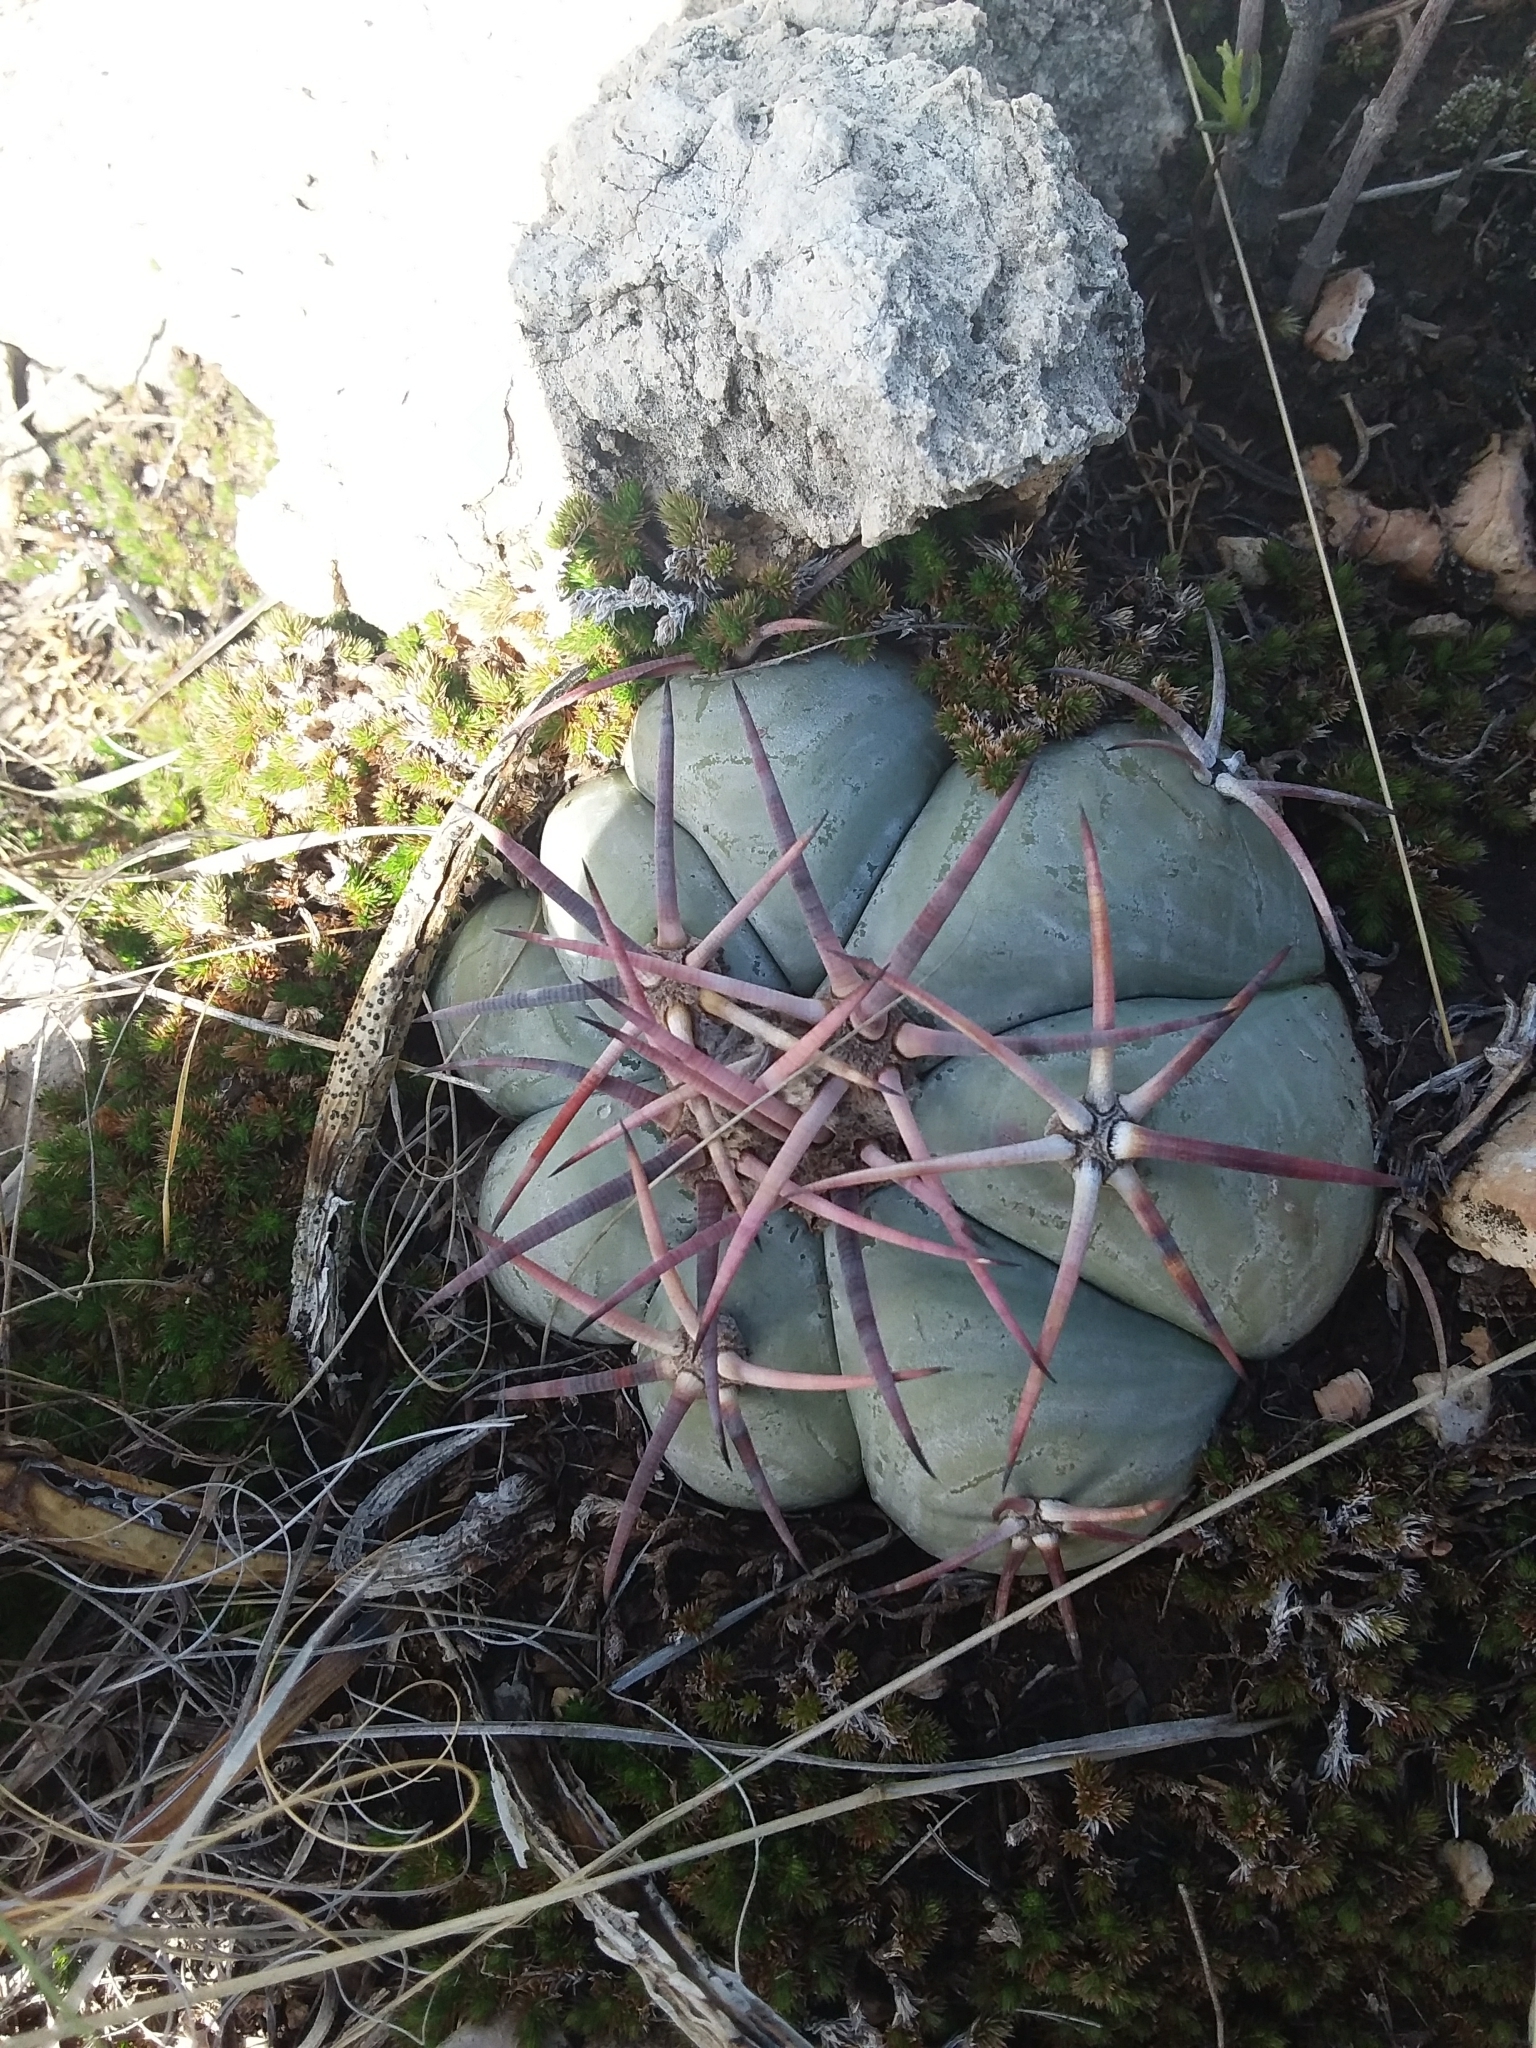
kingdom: Plantae
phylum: Tracheophyta
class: Magnoliopsida
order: Caryophyllales
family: Cactaceae
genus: Echinocactus
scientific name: Echinocactus horizonthalonius
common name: Devilshead
